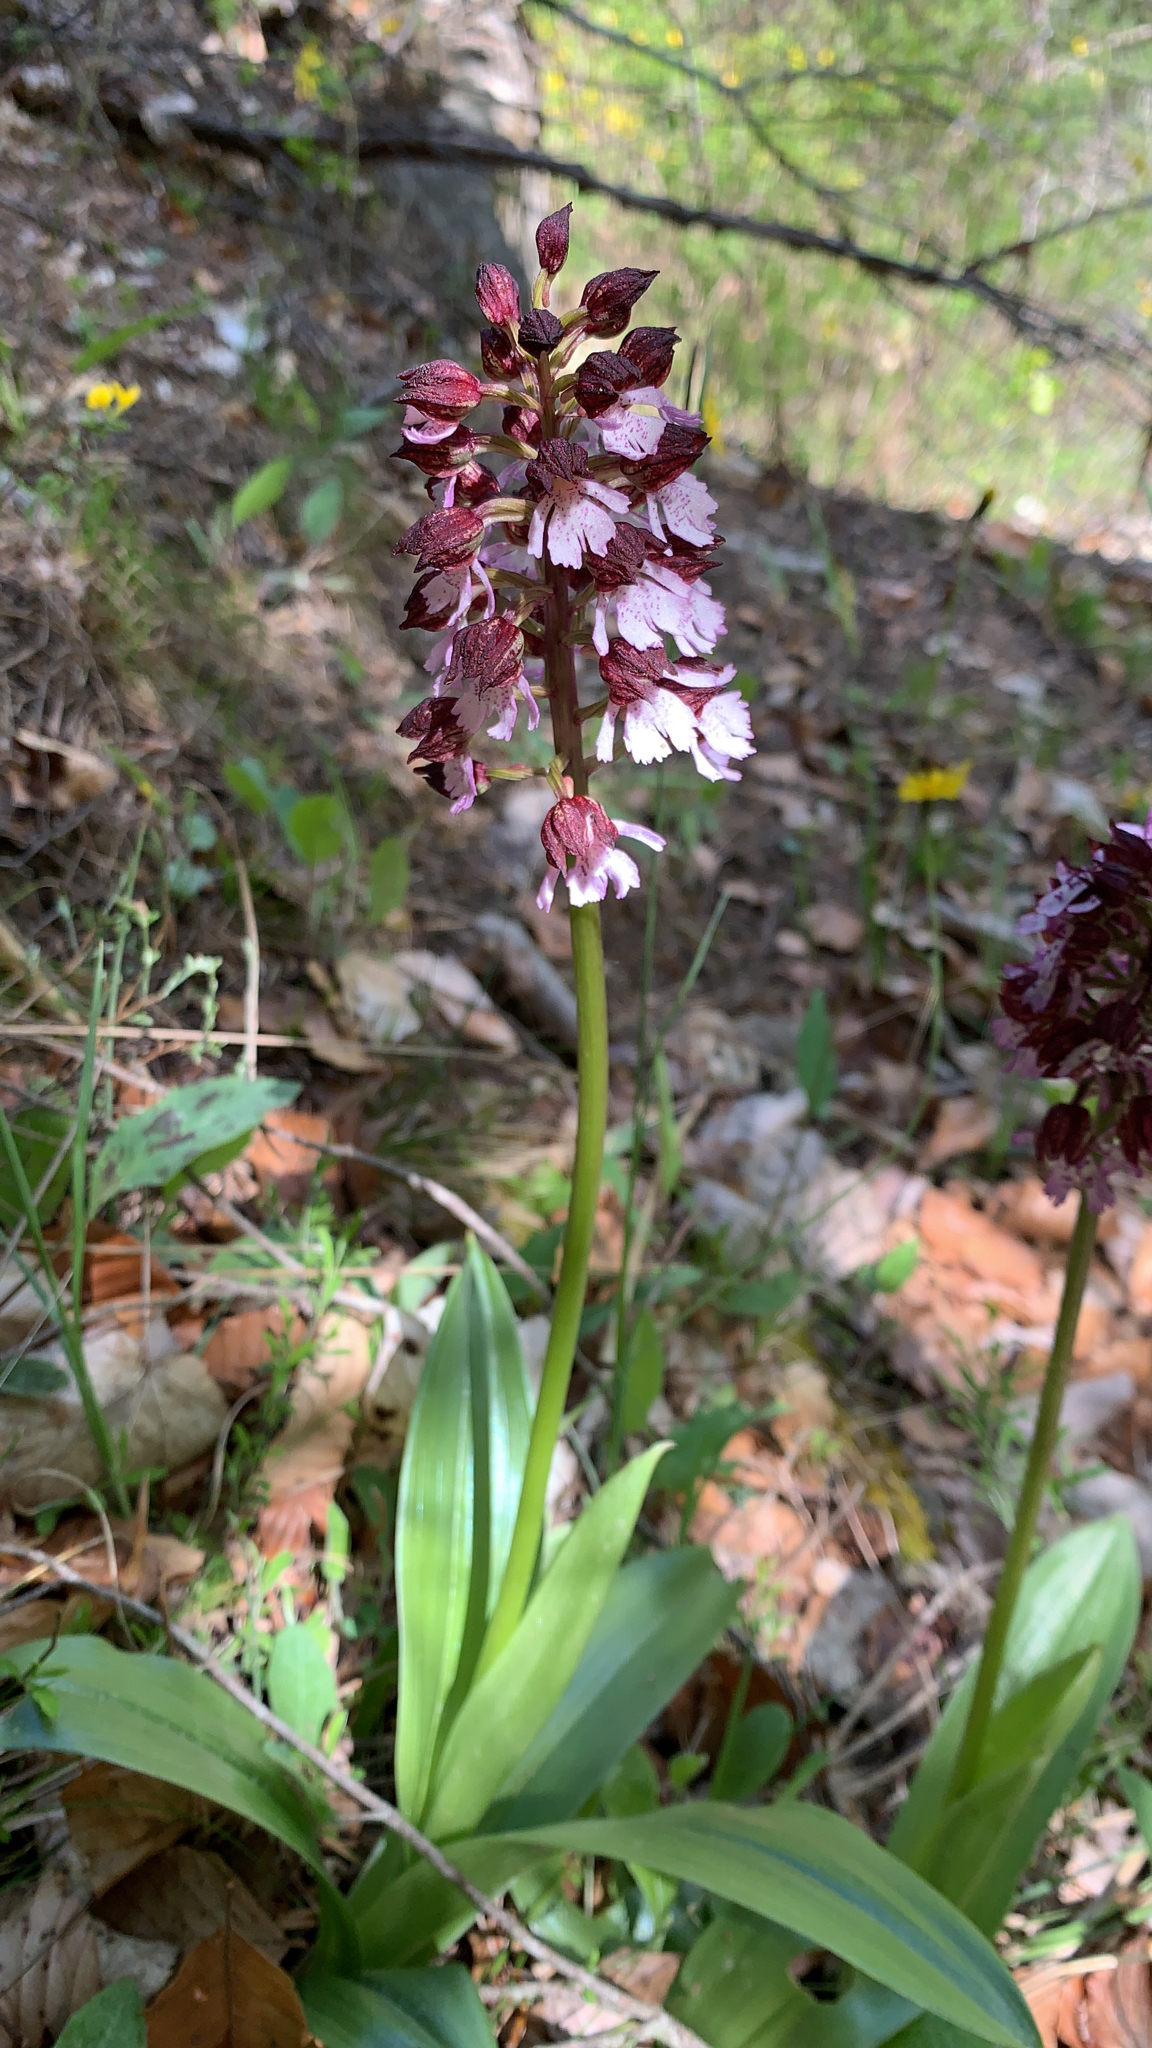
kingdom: Plantae
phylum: Tracheophyta
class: Liliopsida
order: Asparagales
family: Orchidaceae
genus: Orchis
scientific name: Orchis purpurea
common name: Lady orchid
